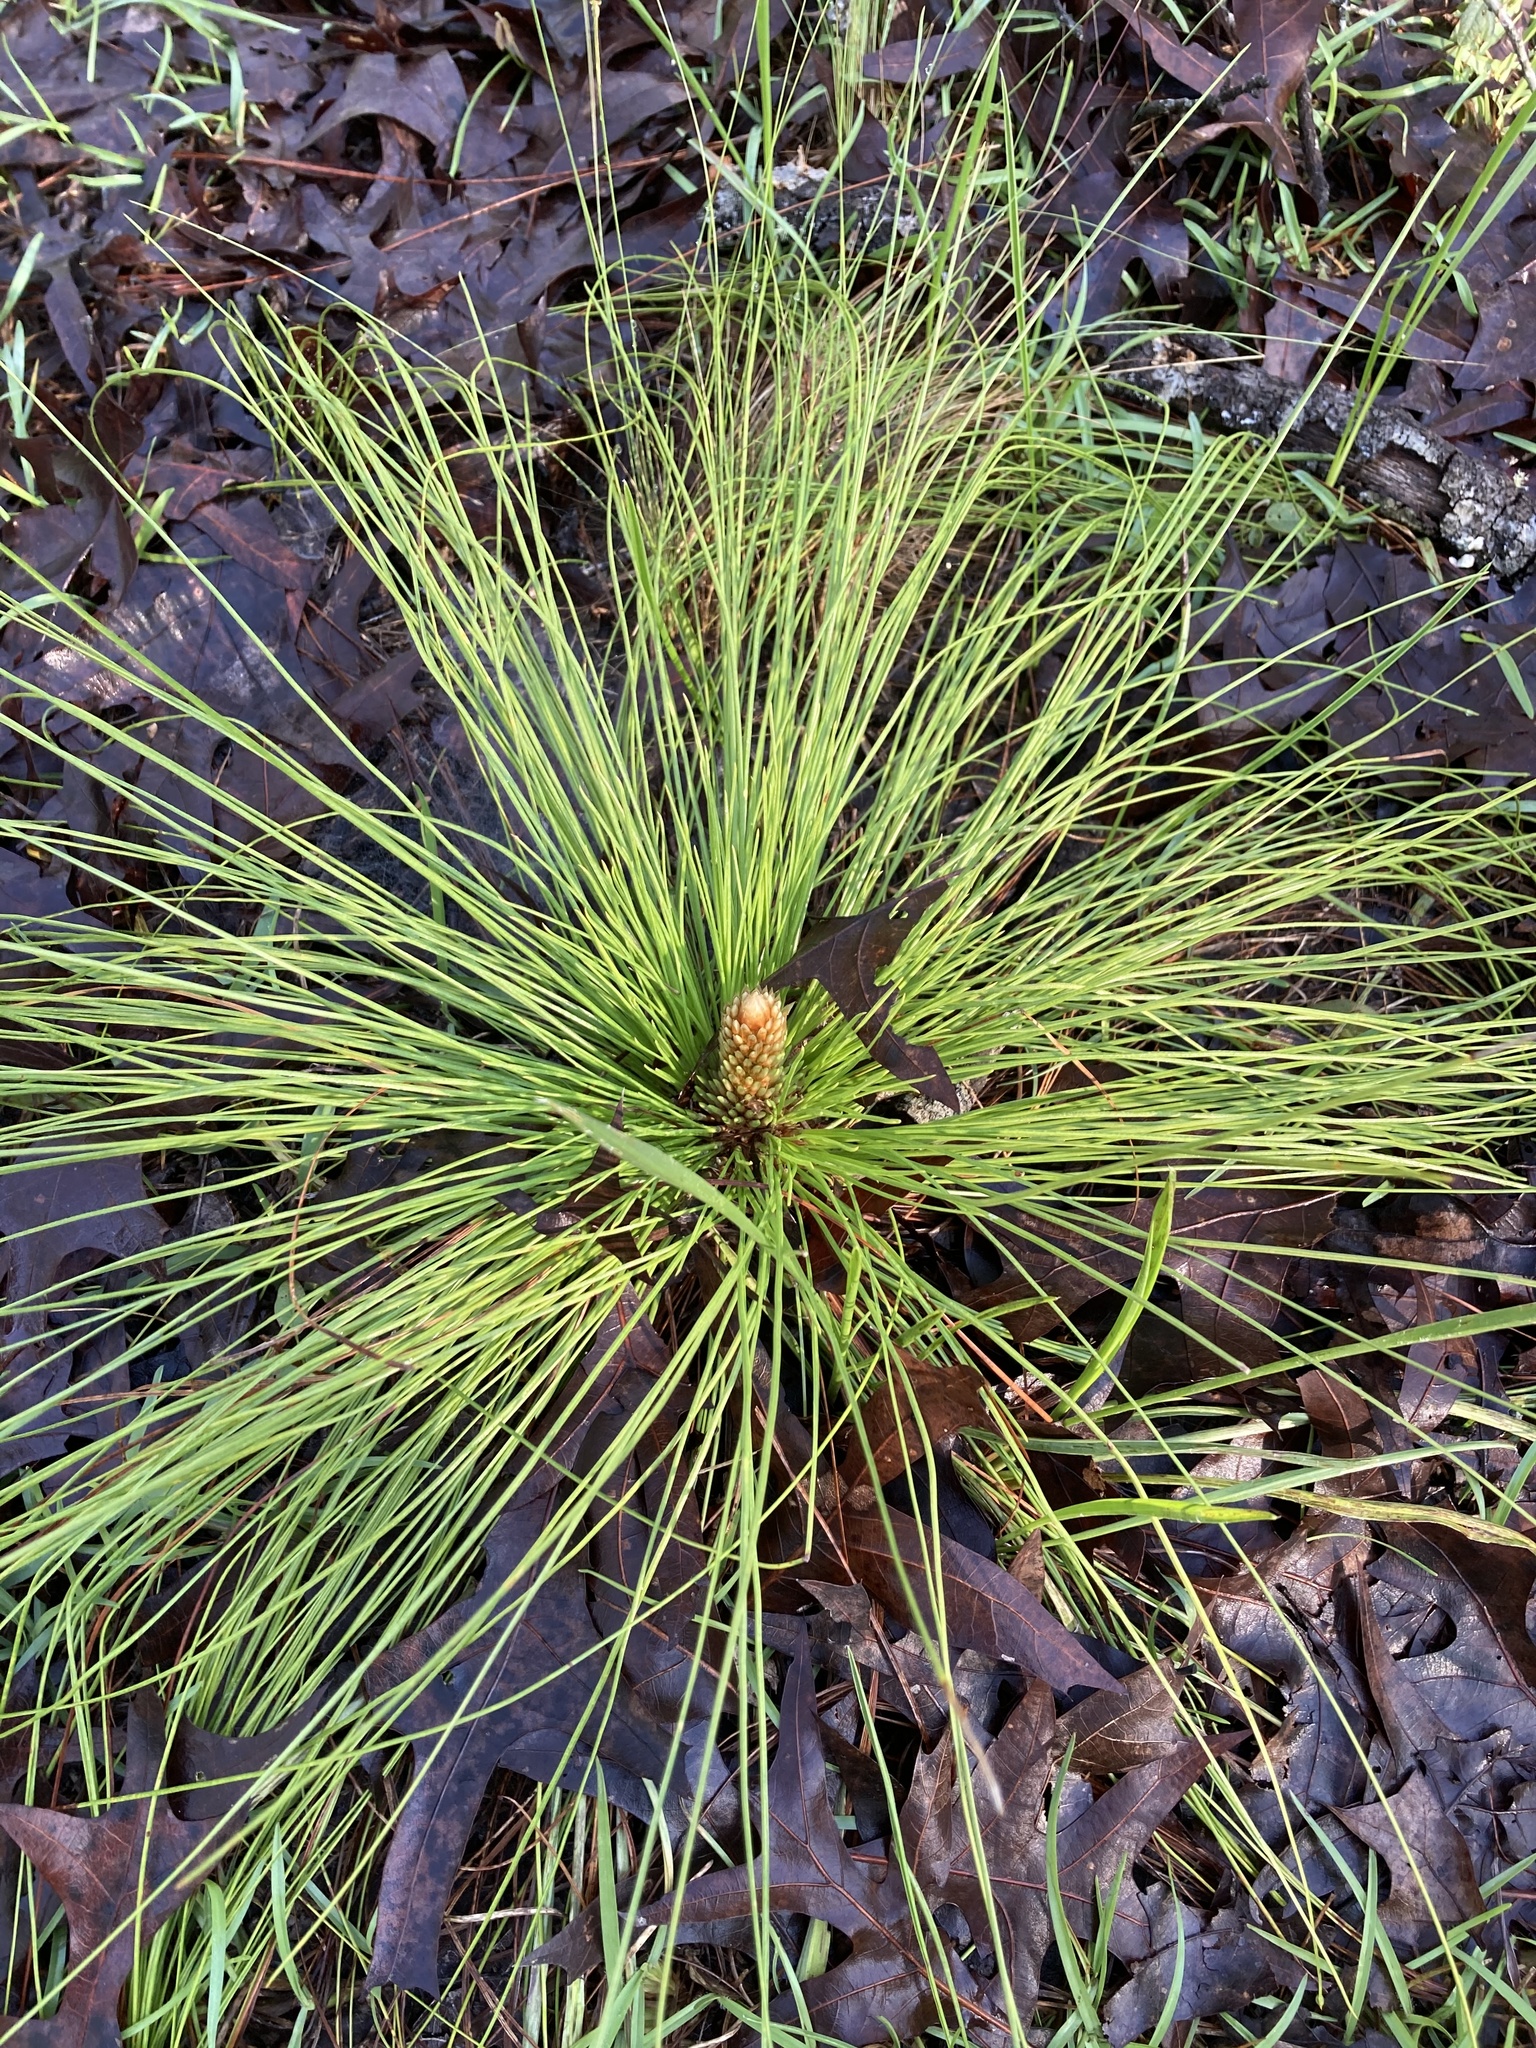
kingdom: Plantae
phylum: Tracheophyta
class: Pinopsida
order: Pinales
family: Pinaceae
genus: Pinus
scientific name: Pinus palustris
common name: Longleaf pine
